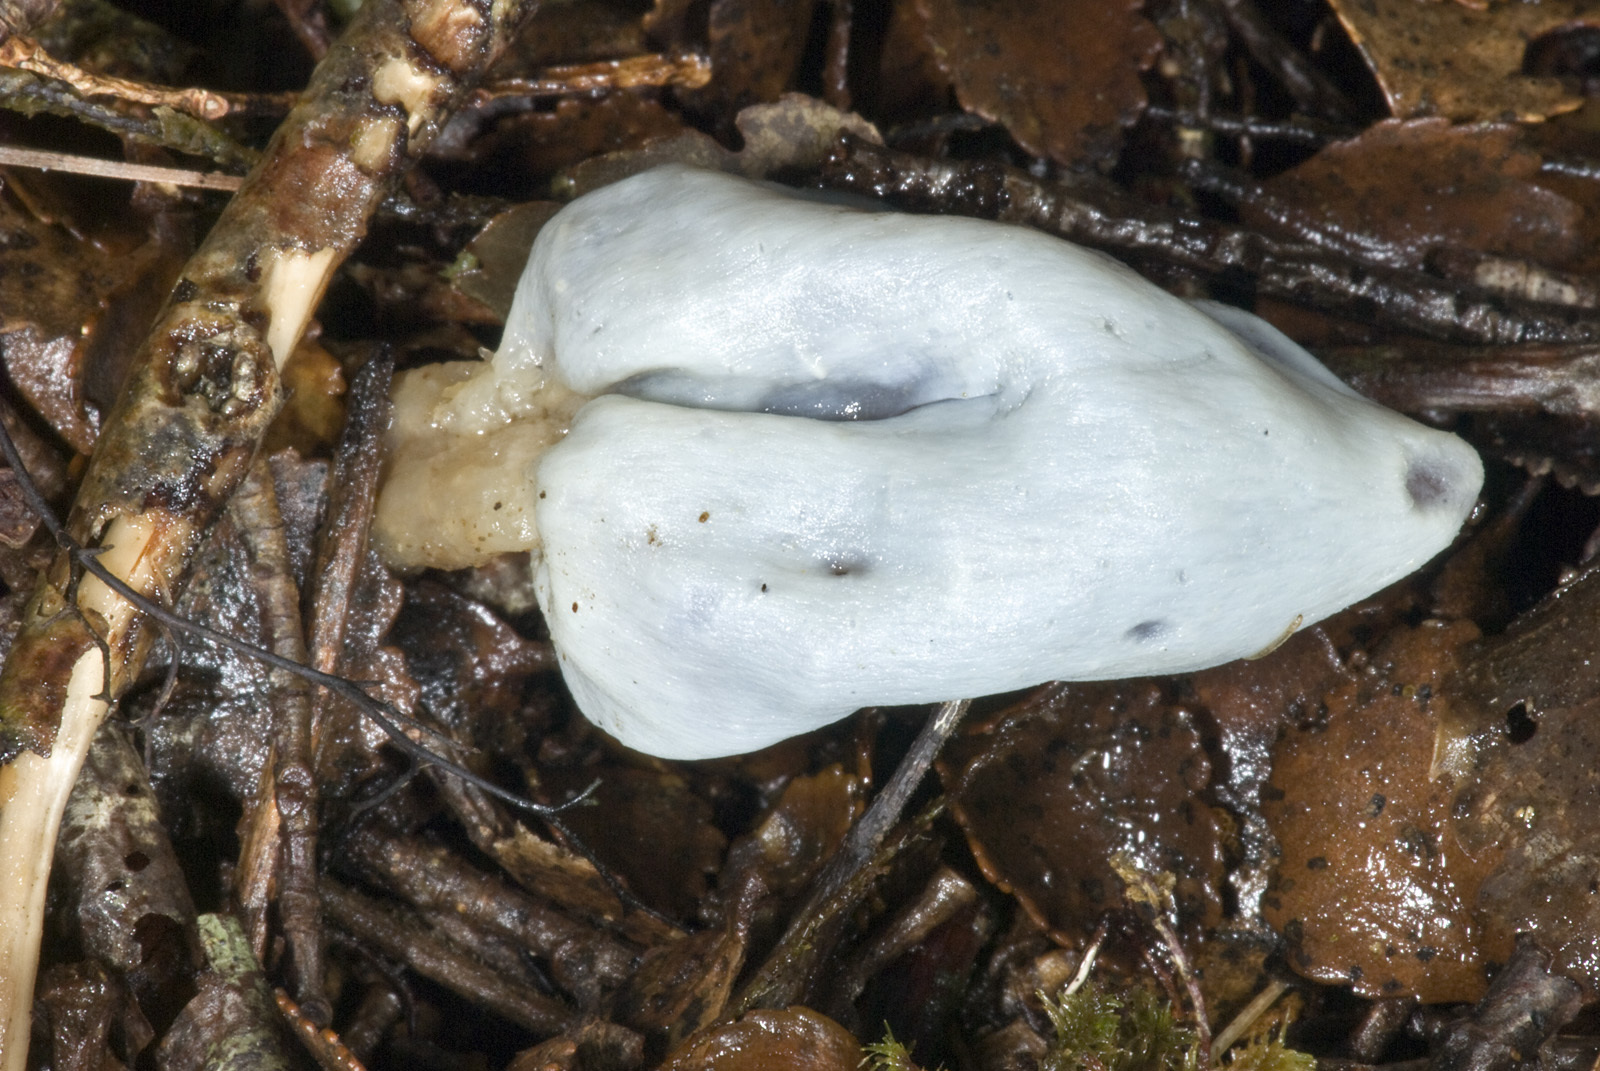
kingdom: Fungi
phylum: Basidiomycota
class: Agaricomycetes
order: Agaricales
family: Agaricaceae
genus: Clavogaster
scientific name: Clavogaster virescens
